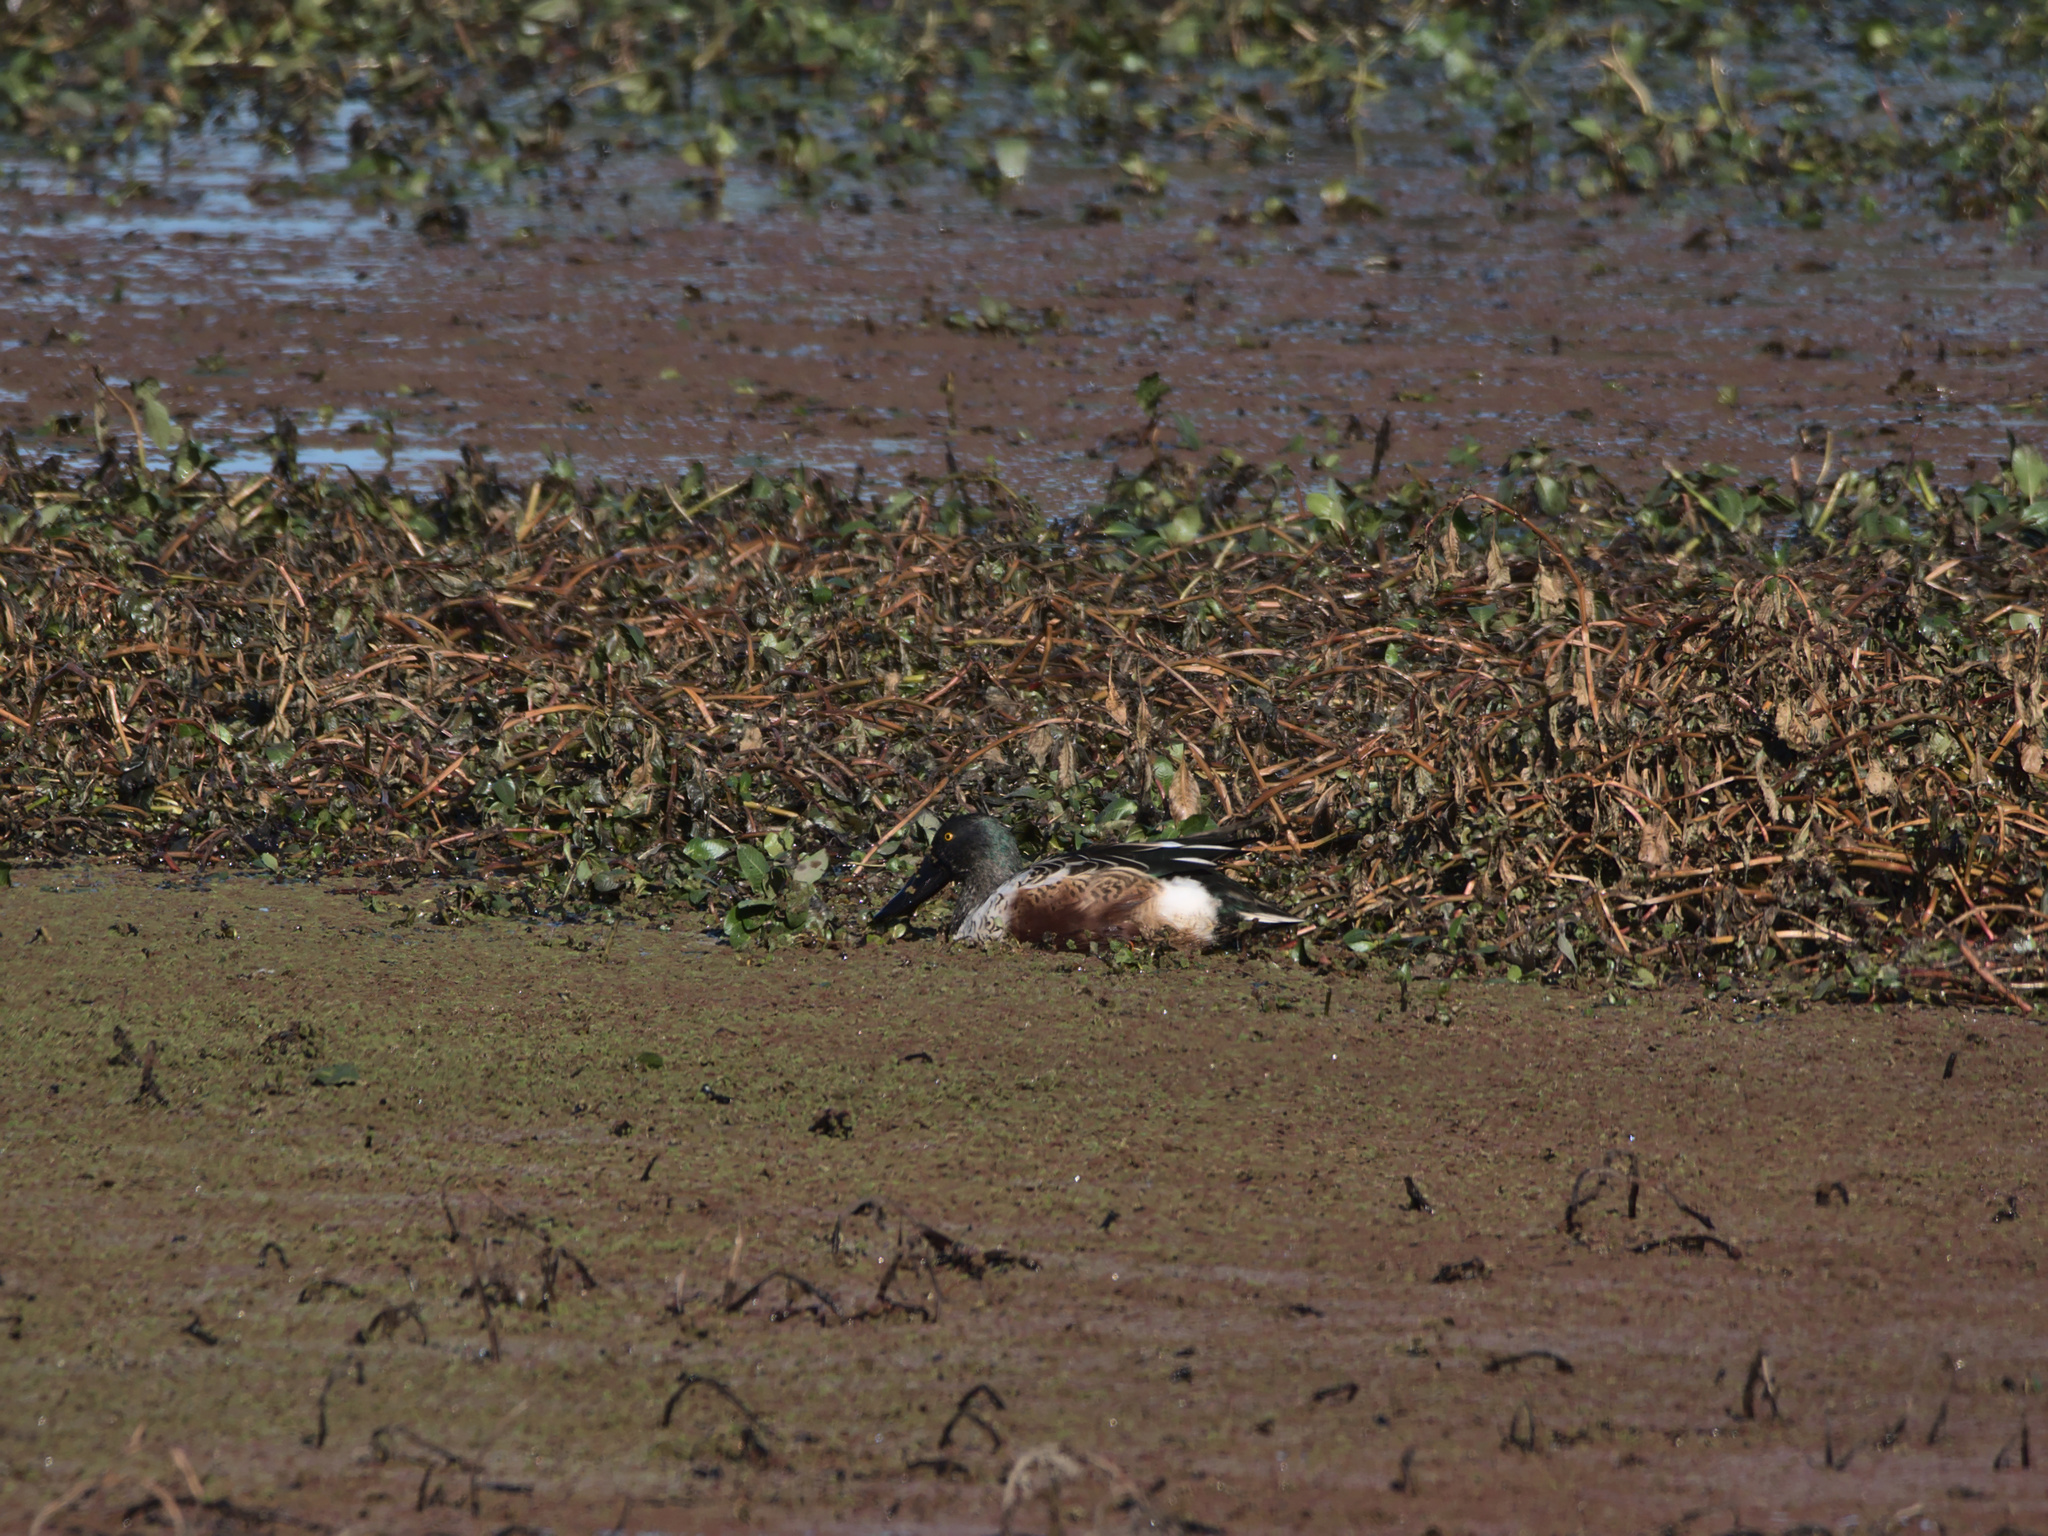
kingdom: Animalia
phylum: Chordata
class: Aves
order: Anseriformes
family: Anatidae
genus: Spatula
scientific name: Spatula clypeata
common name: Northern shoveler
